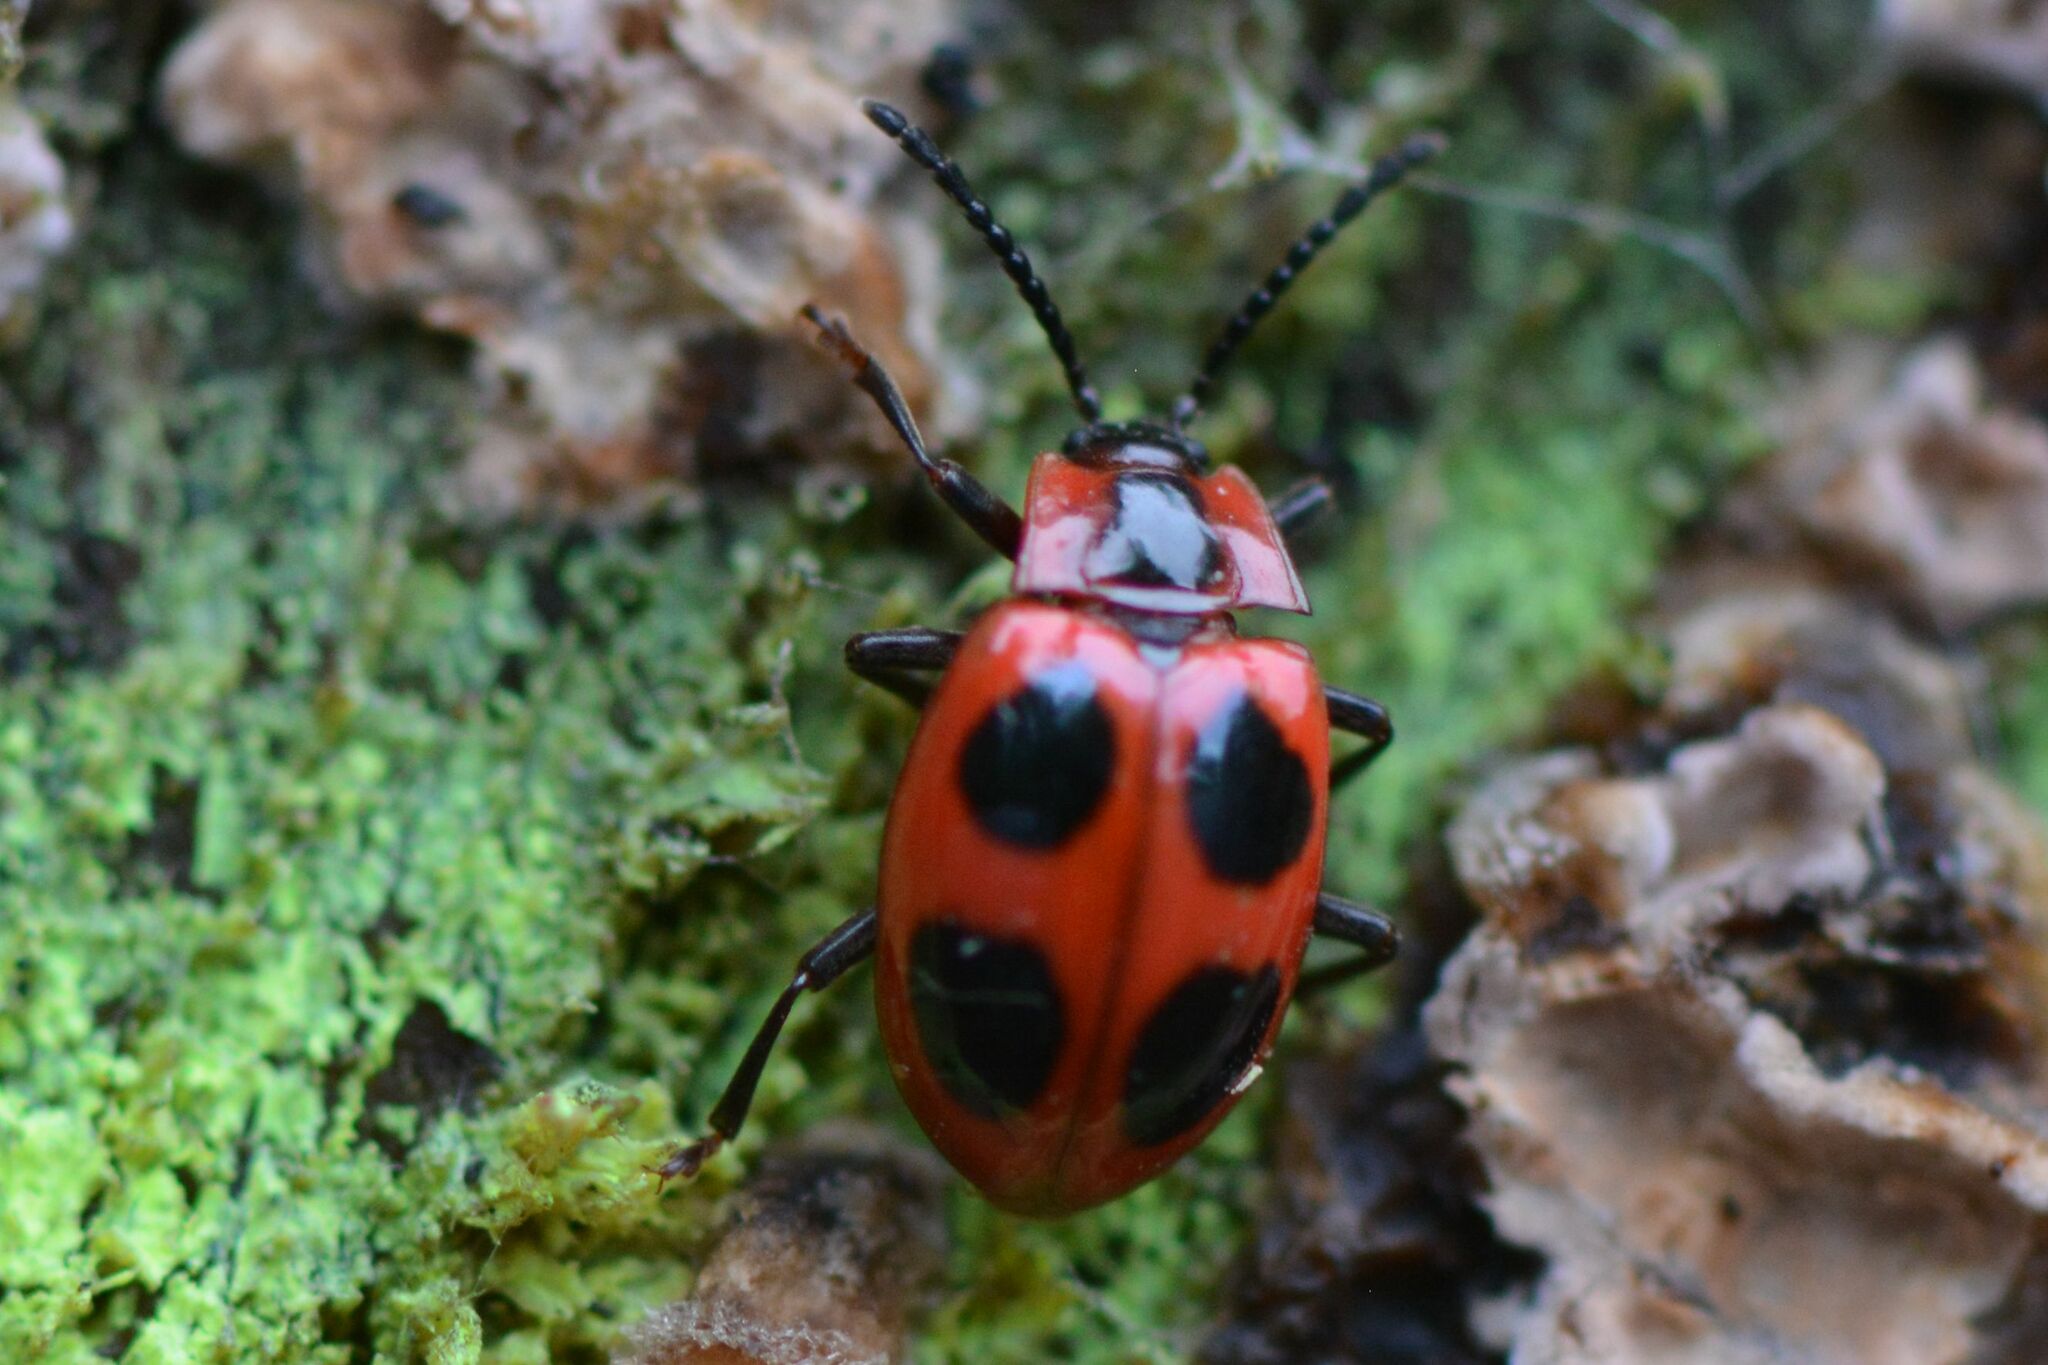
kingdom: Animalia
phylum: Arthropoda
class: Insecta
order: Coleoptera
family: Endomychidae
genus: Endomychus
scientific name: Endomychus coccineus
